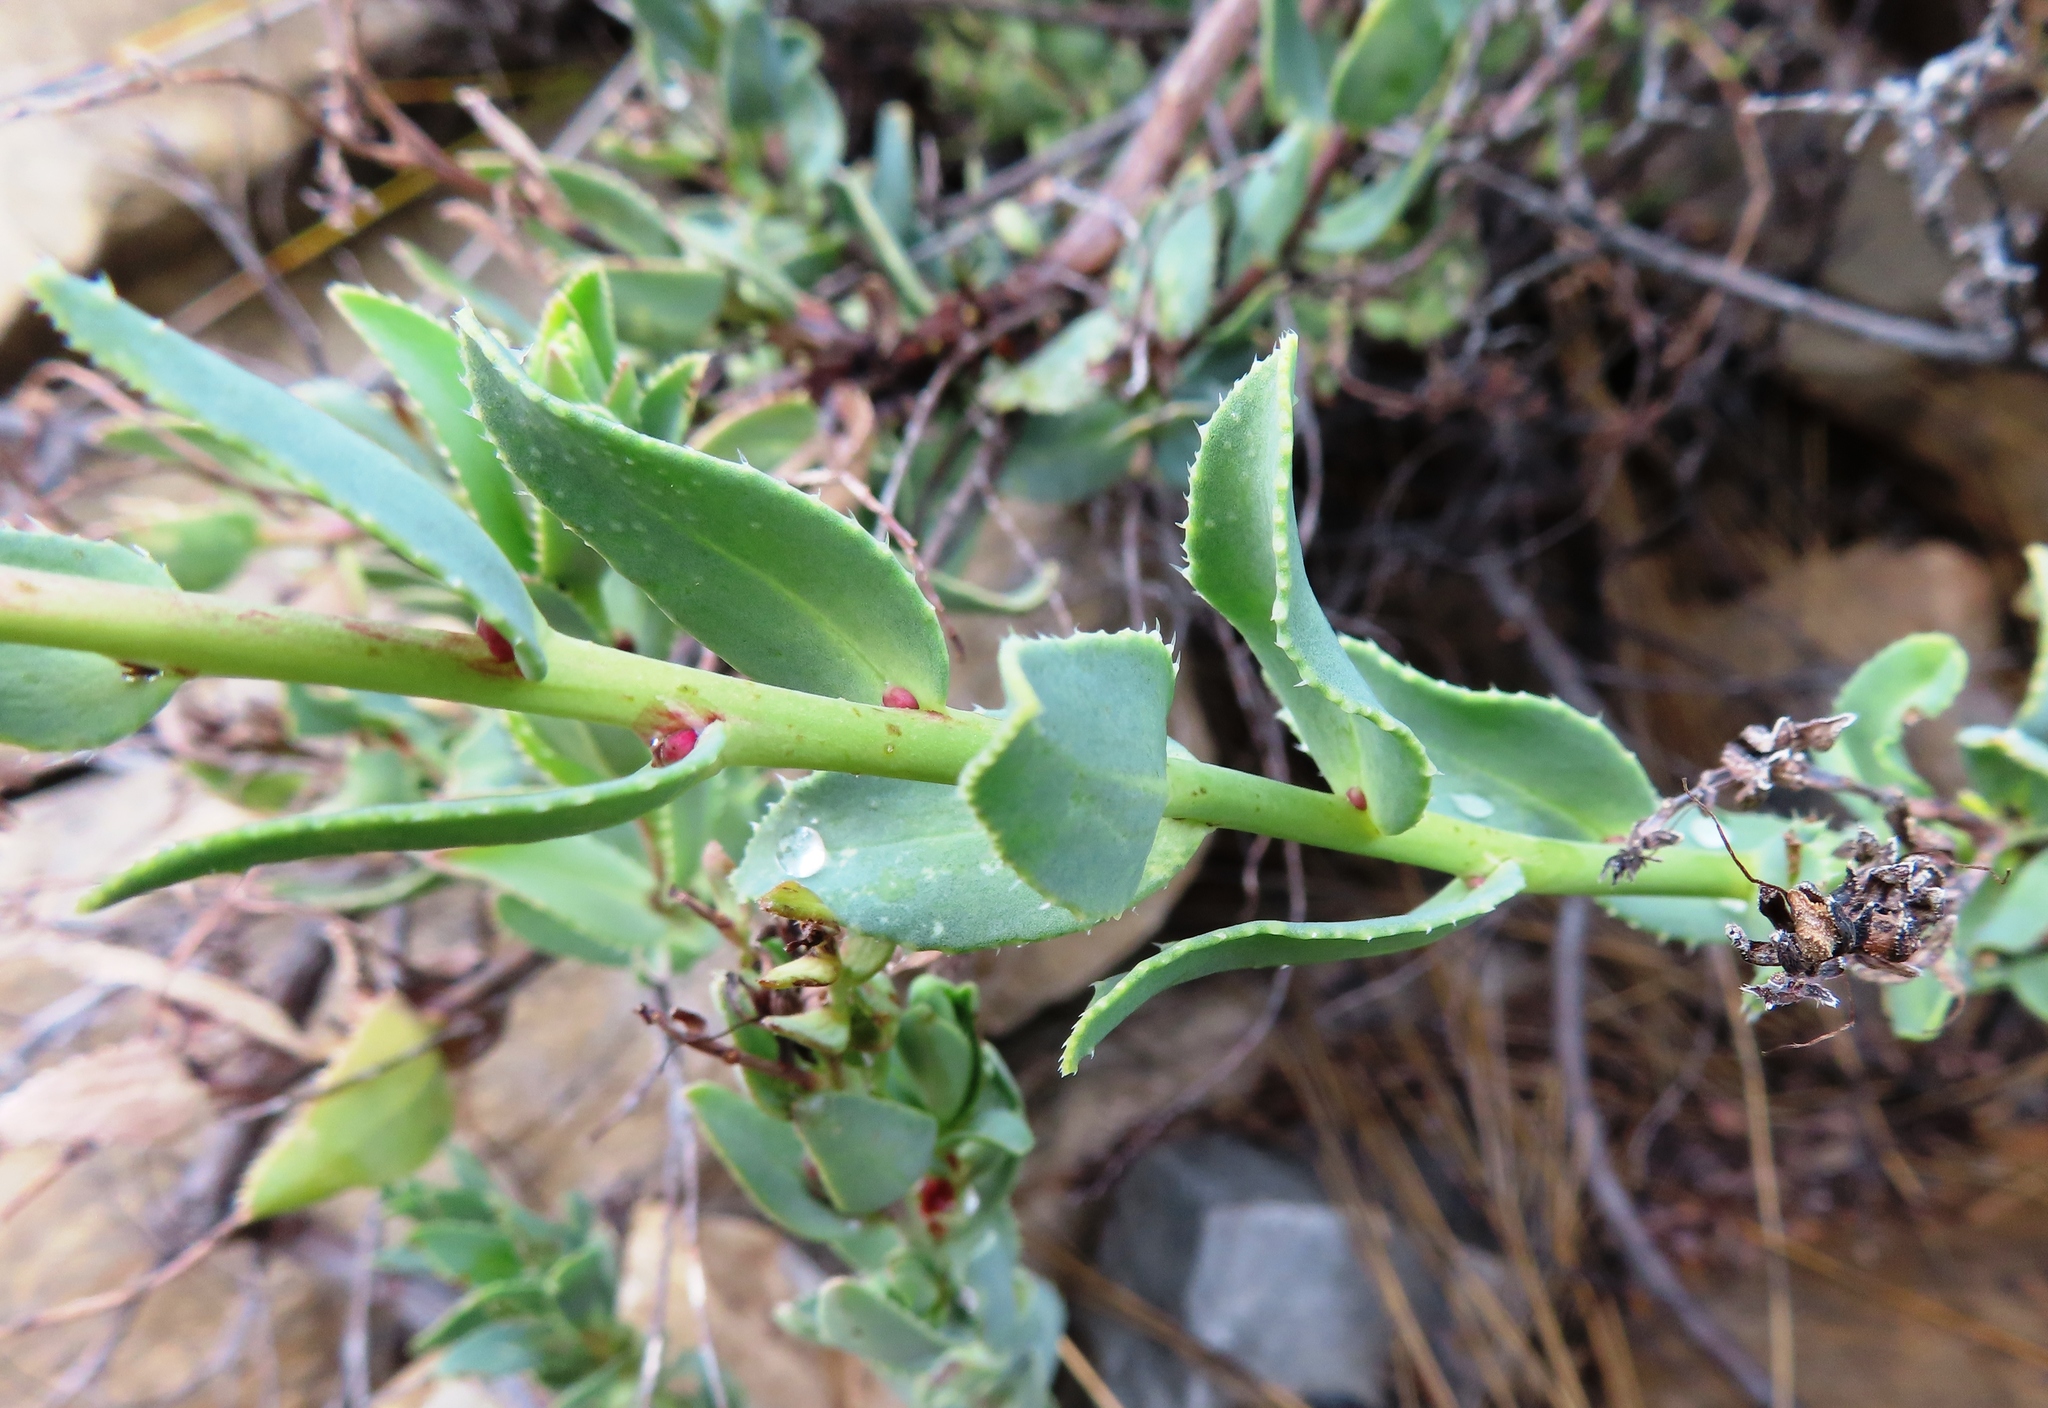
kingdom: Plantae
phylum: Tracheophyta
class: Magnoliopsida
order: Boraginales
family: Boraginaceae
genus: Lobostemon
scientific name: Lobostemon laevigatus
